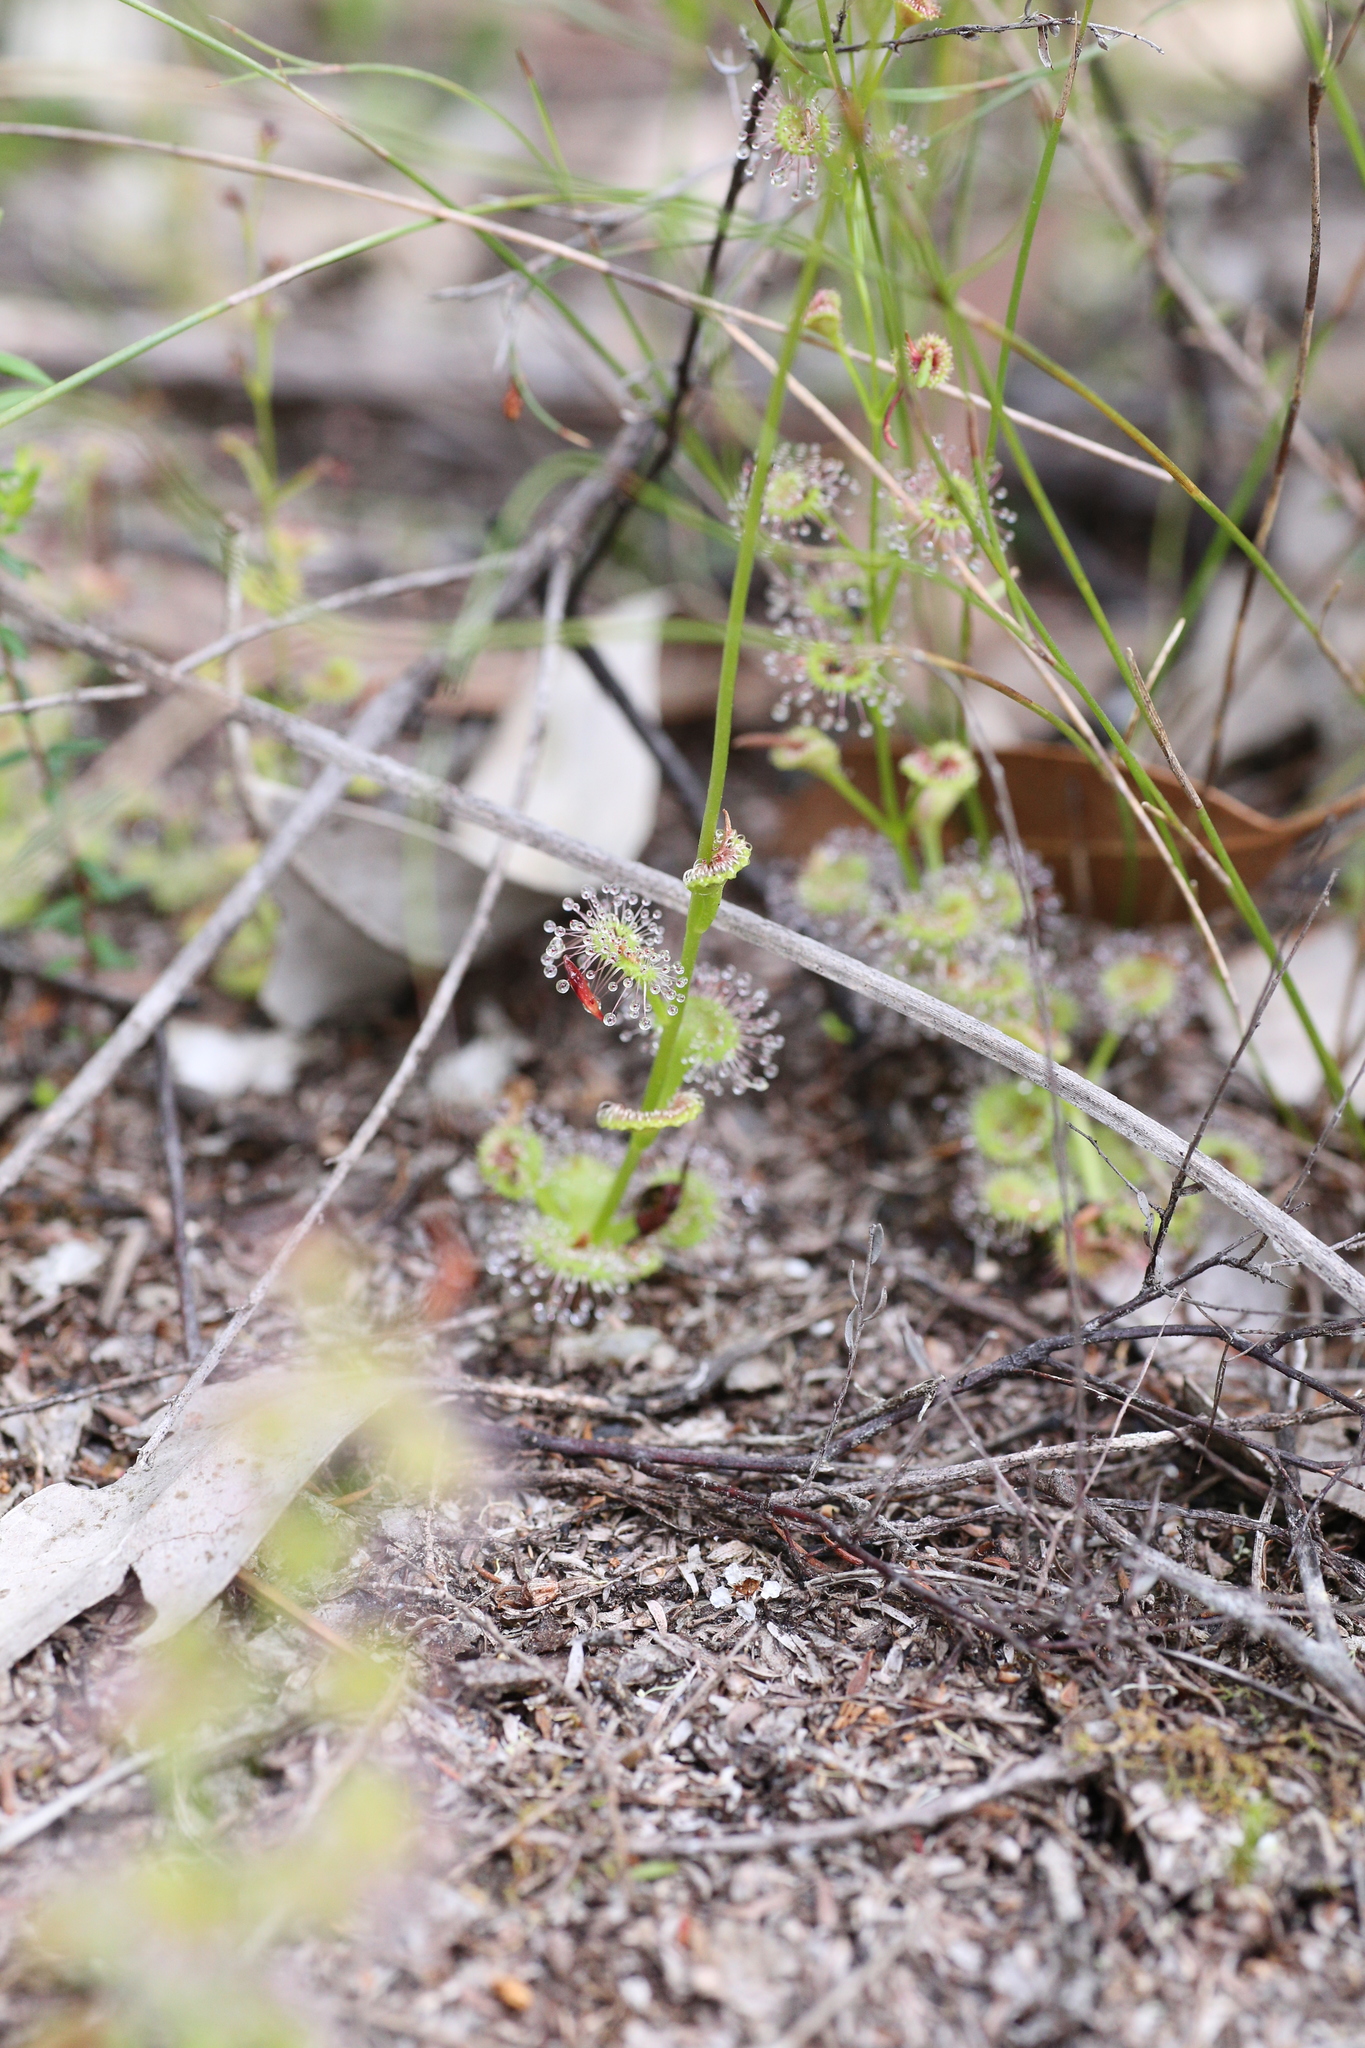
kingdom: Plantae
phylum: Tracheophyta
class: Magnoliopsida
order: Caryophyllales
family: Droseraceae
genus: Drosera
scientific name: Drosera platypoda
